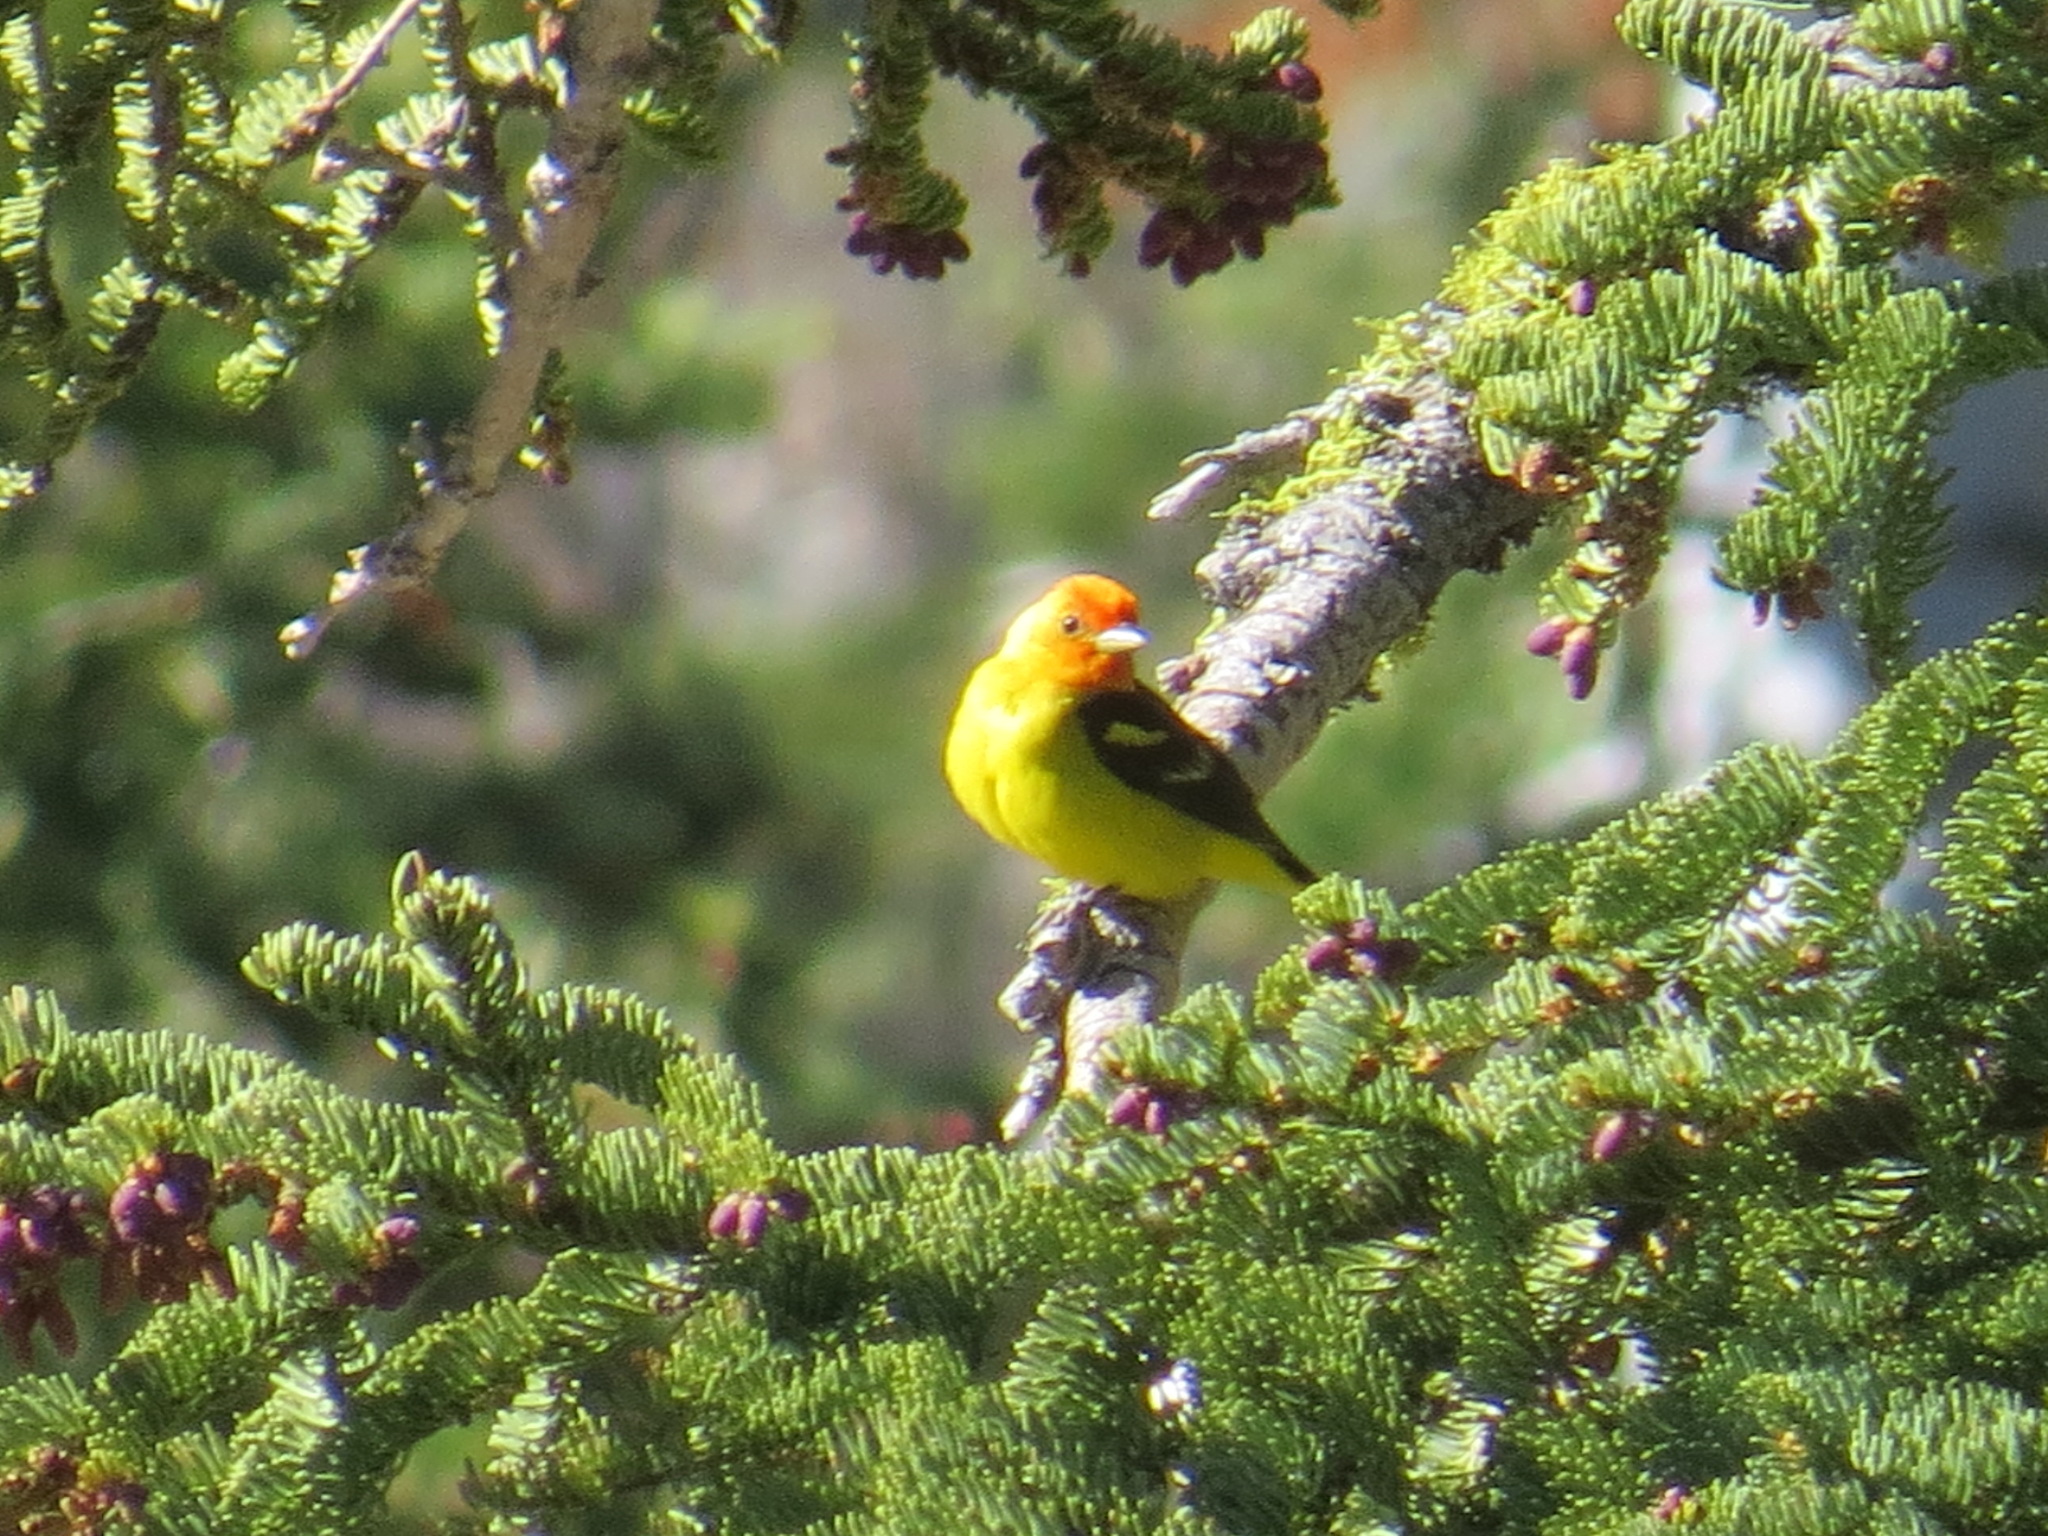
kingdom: Animalia
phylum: Chordata
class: Aves
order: Passeriformes
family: Cardinalidae
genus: Piranga
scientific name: Piranga ludoviciana
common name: Western tanager
